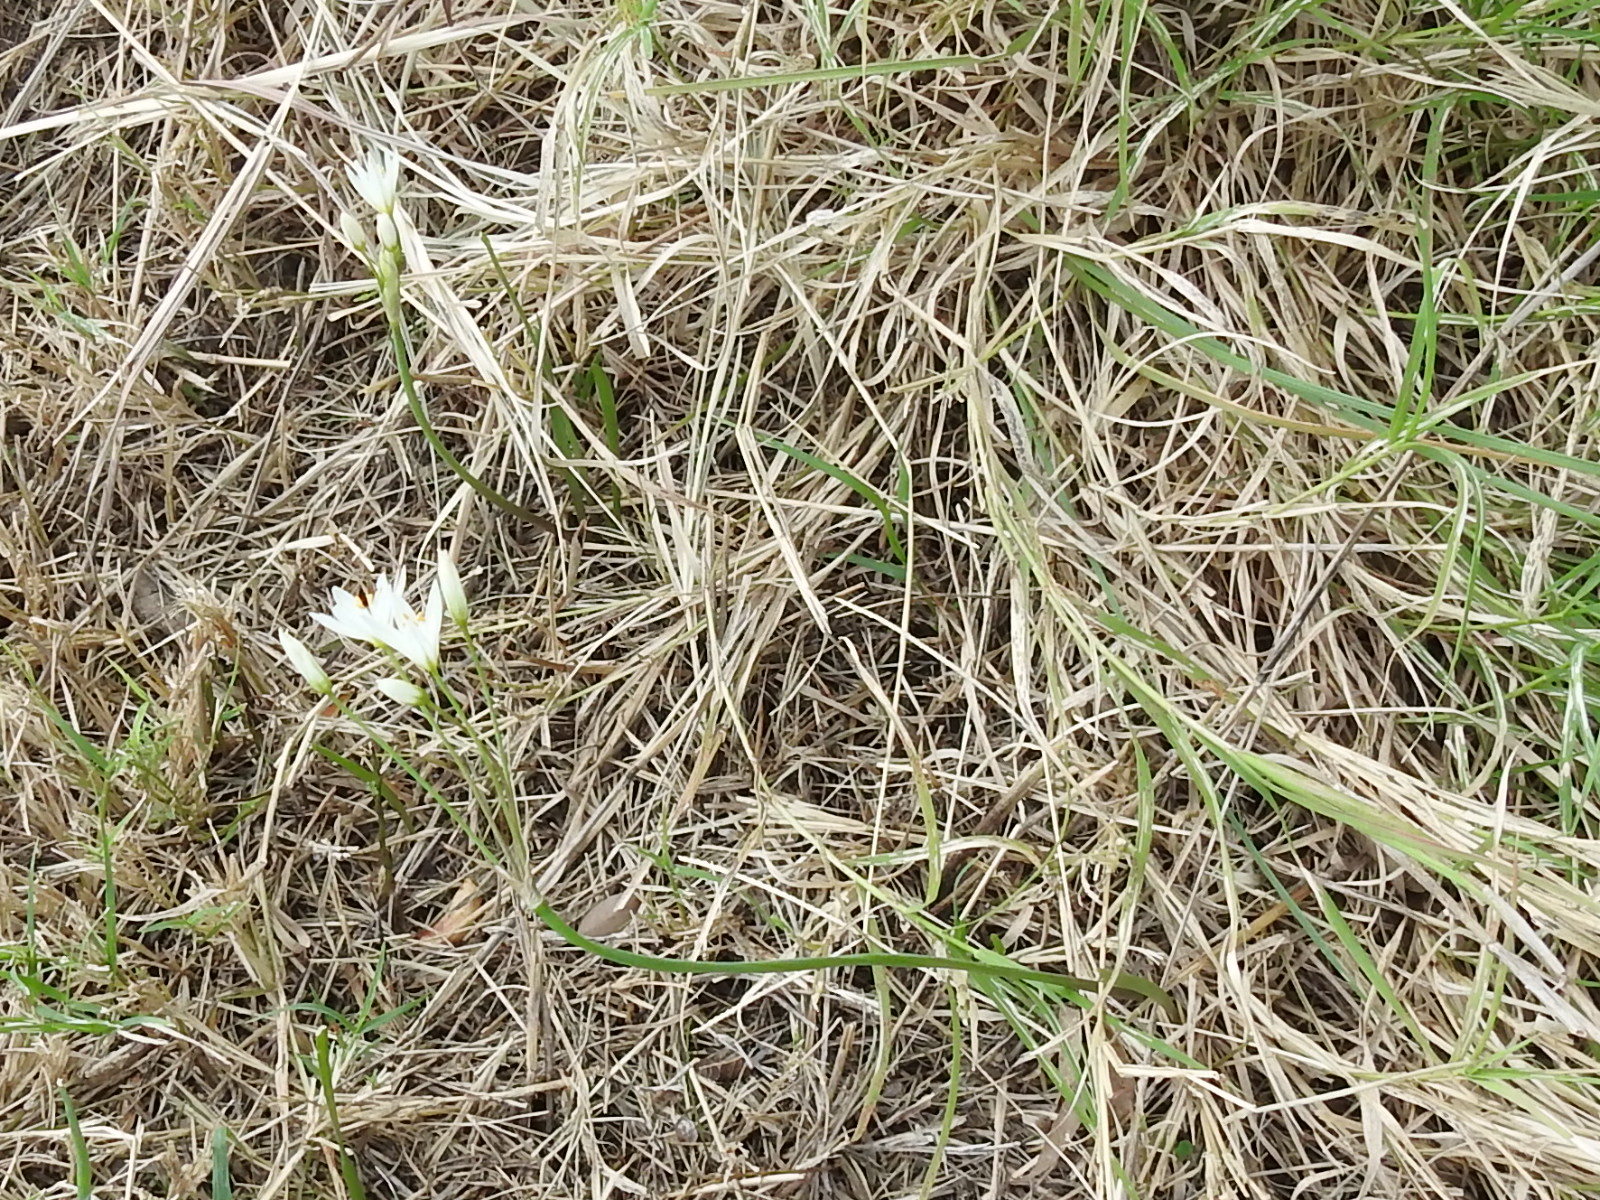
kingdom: Plantae
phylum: Tracheophyta
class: Liliopsida
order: Asparagales
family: Amaryllidaceae
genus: Nothoscordum
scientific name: Nothoscordum bivalve
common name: Crow-poison
